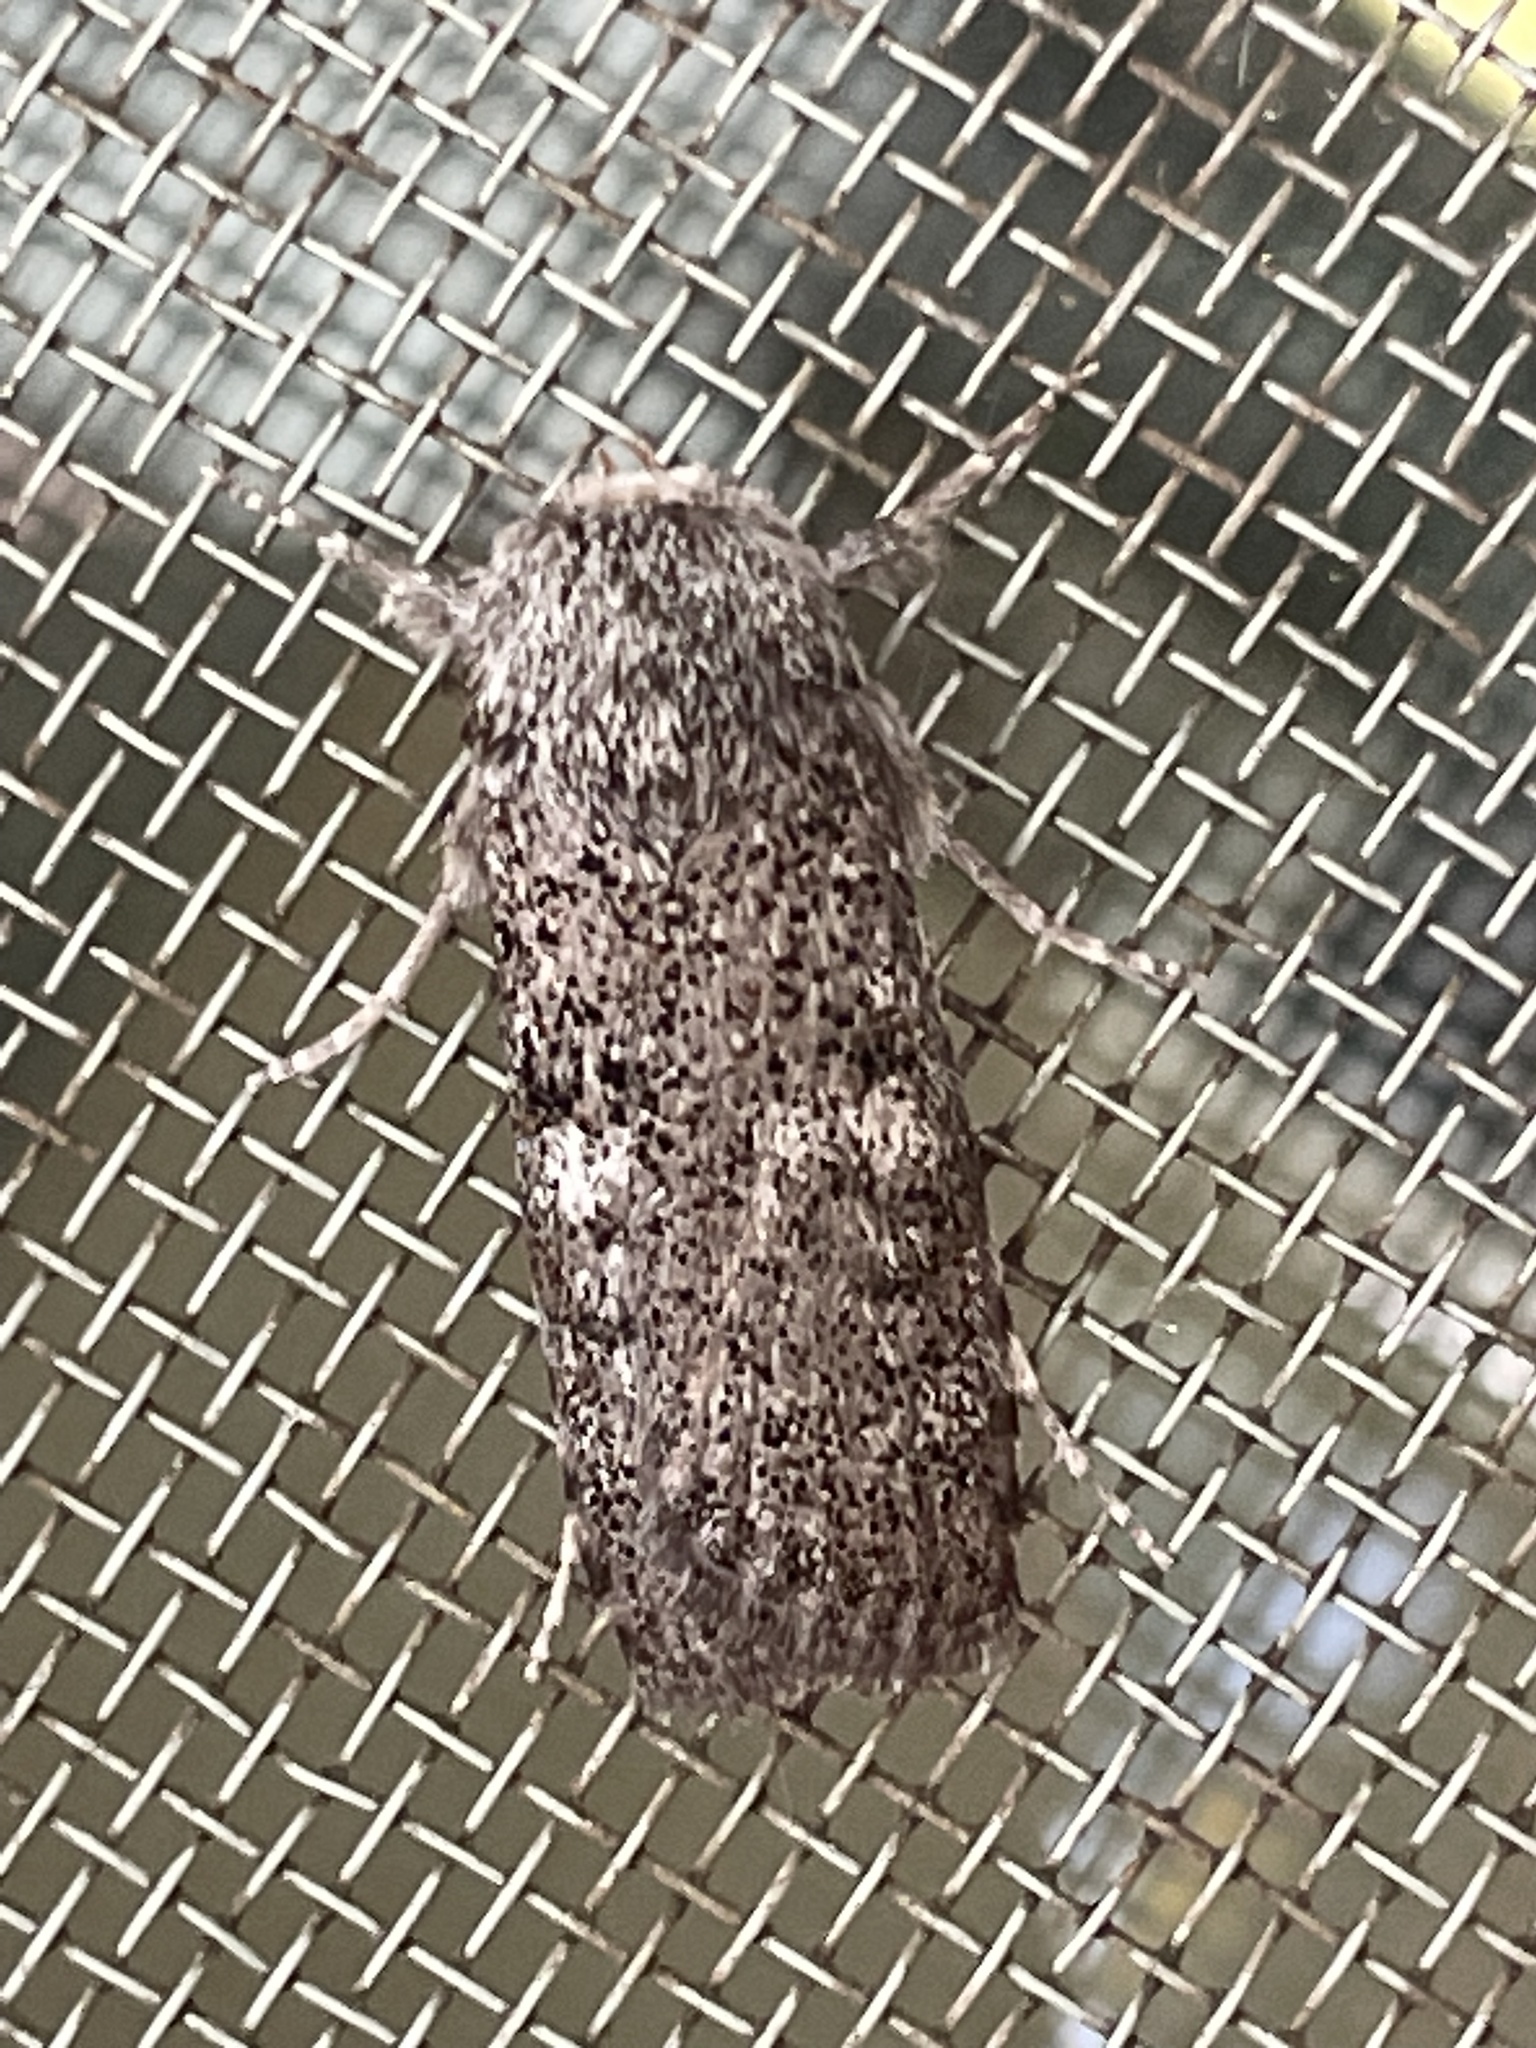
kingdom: Animalia
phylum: Arthropoda
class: Insecta
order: Lepidoptera
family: Xyloryctidae
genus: Cryptophasa
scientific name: Cryptophasa irrorata
